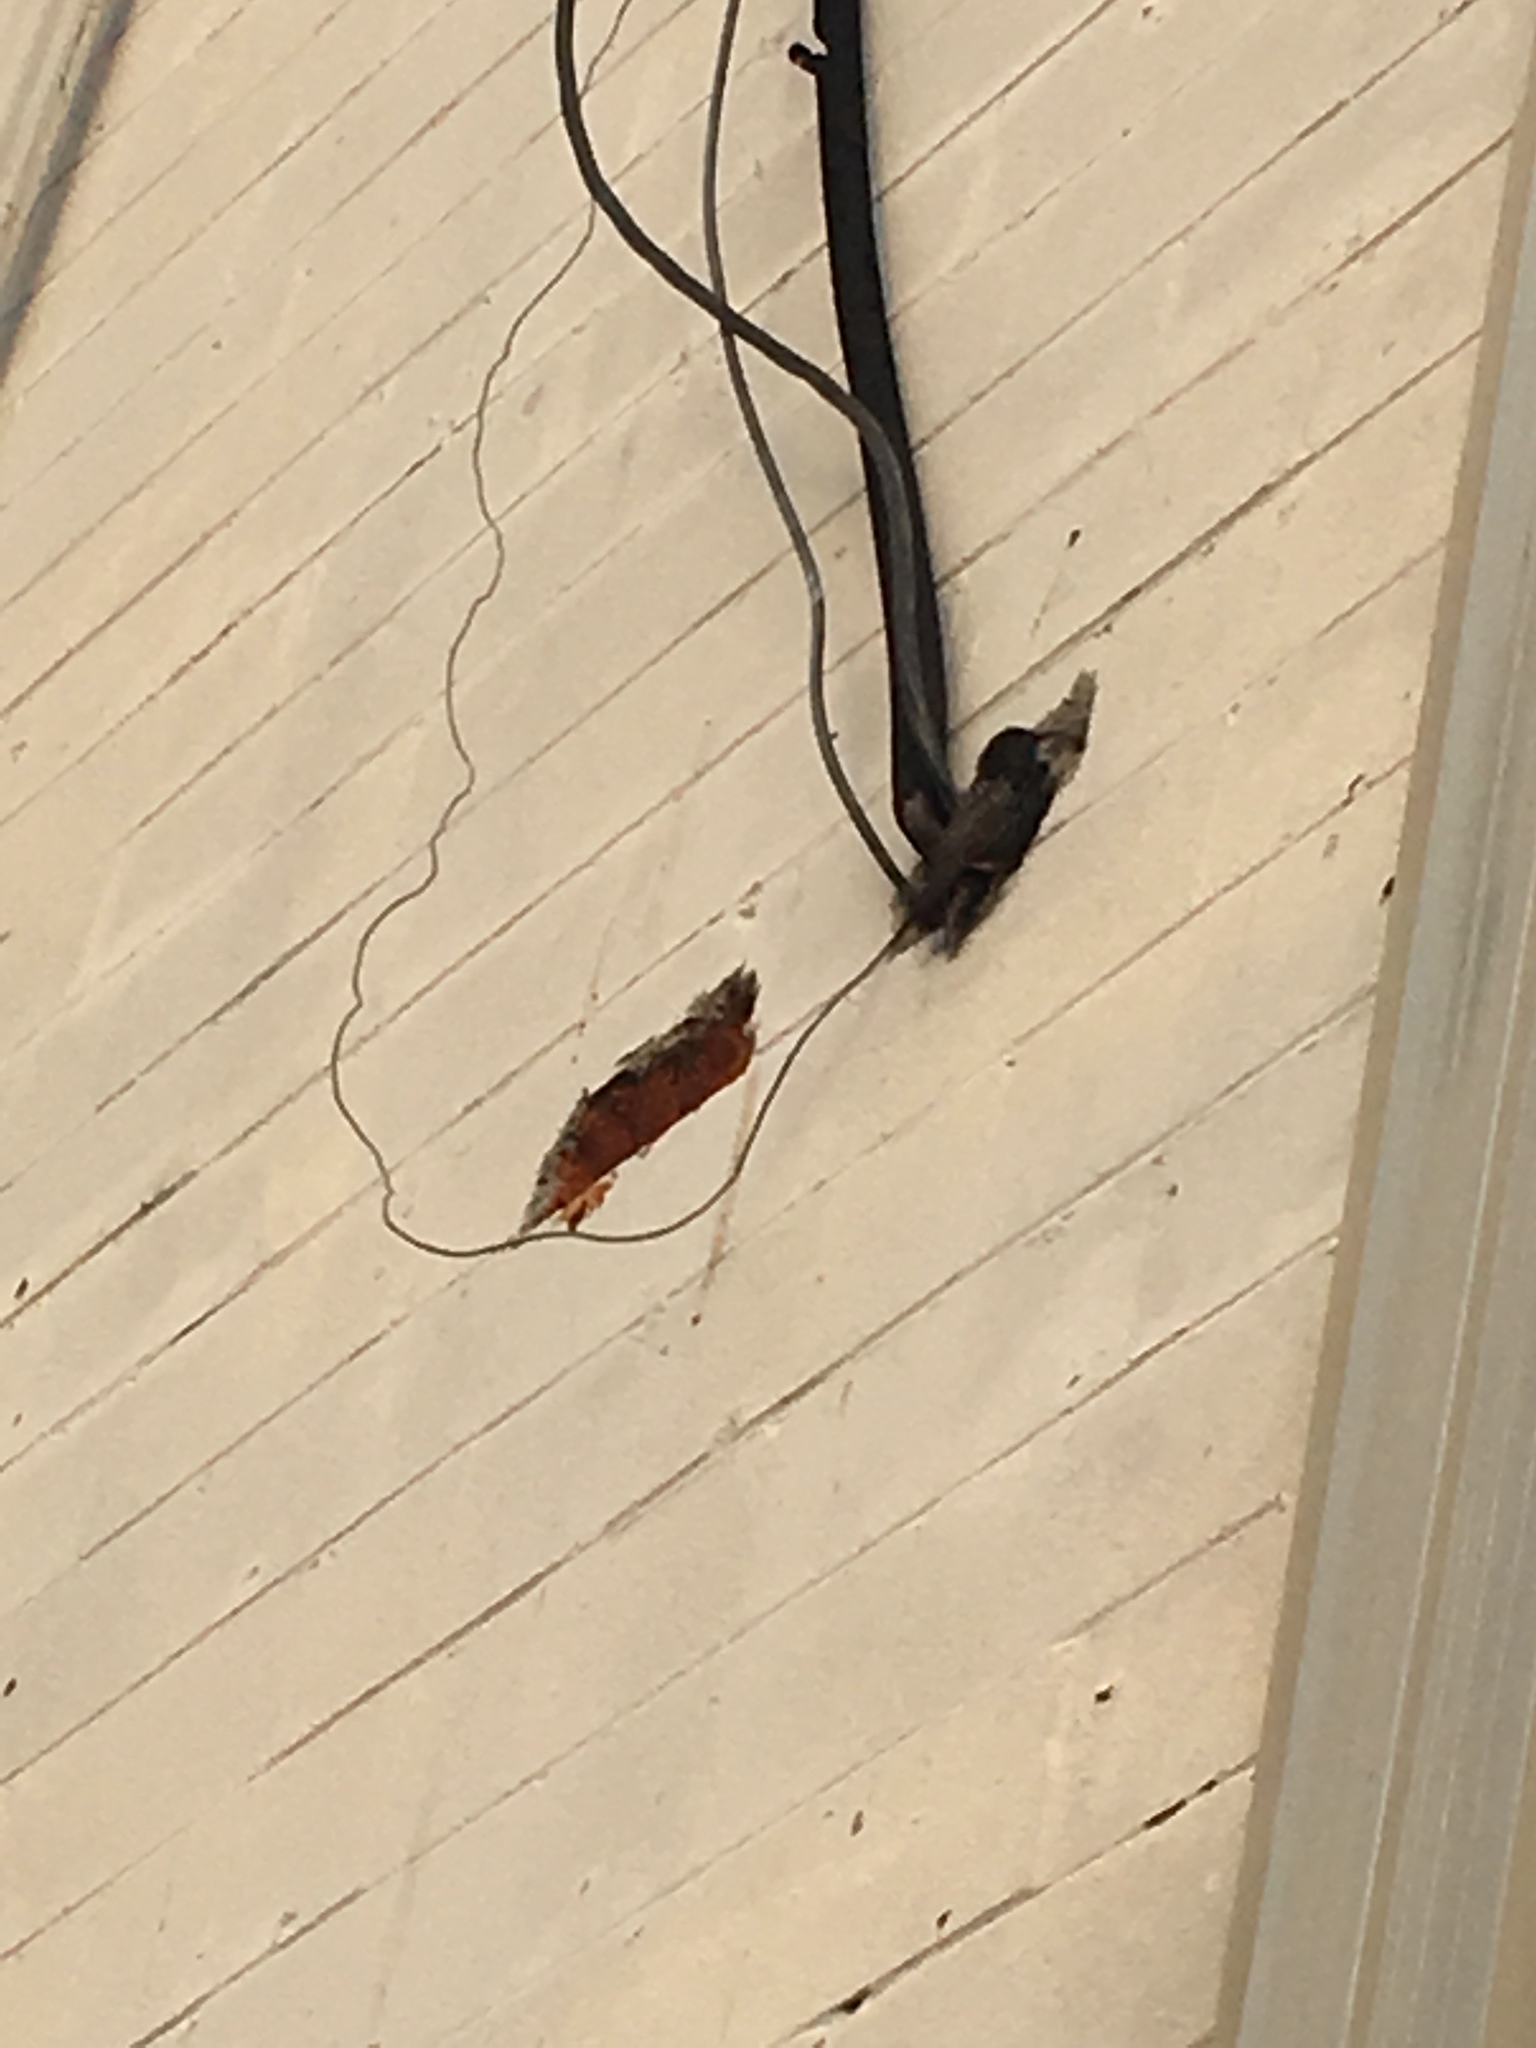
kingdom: Animalia
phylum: Chordata
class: Aves
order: Passeriformes
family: Sturnidae
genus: Sturnus
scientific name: Sturnus vulgaris
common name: Common starling
